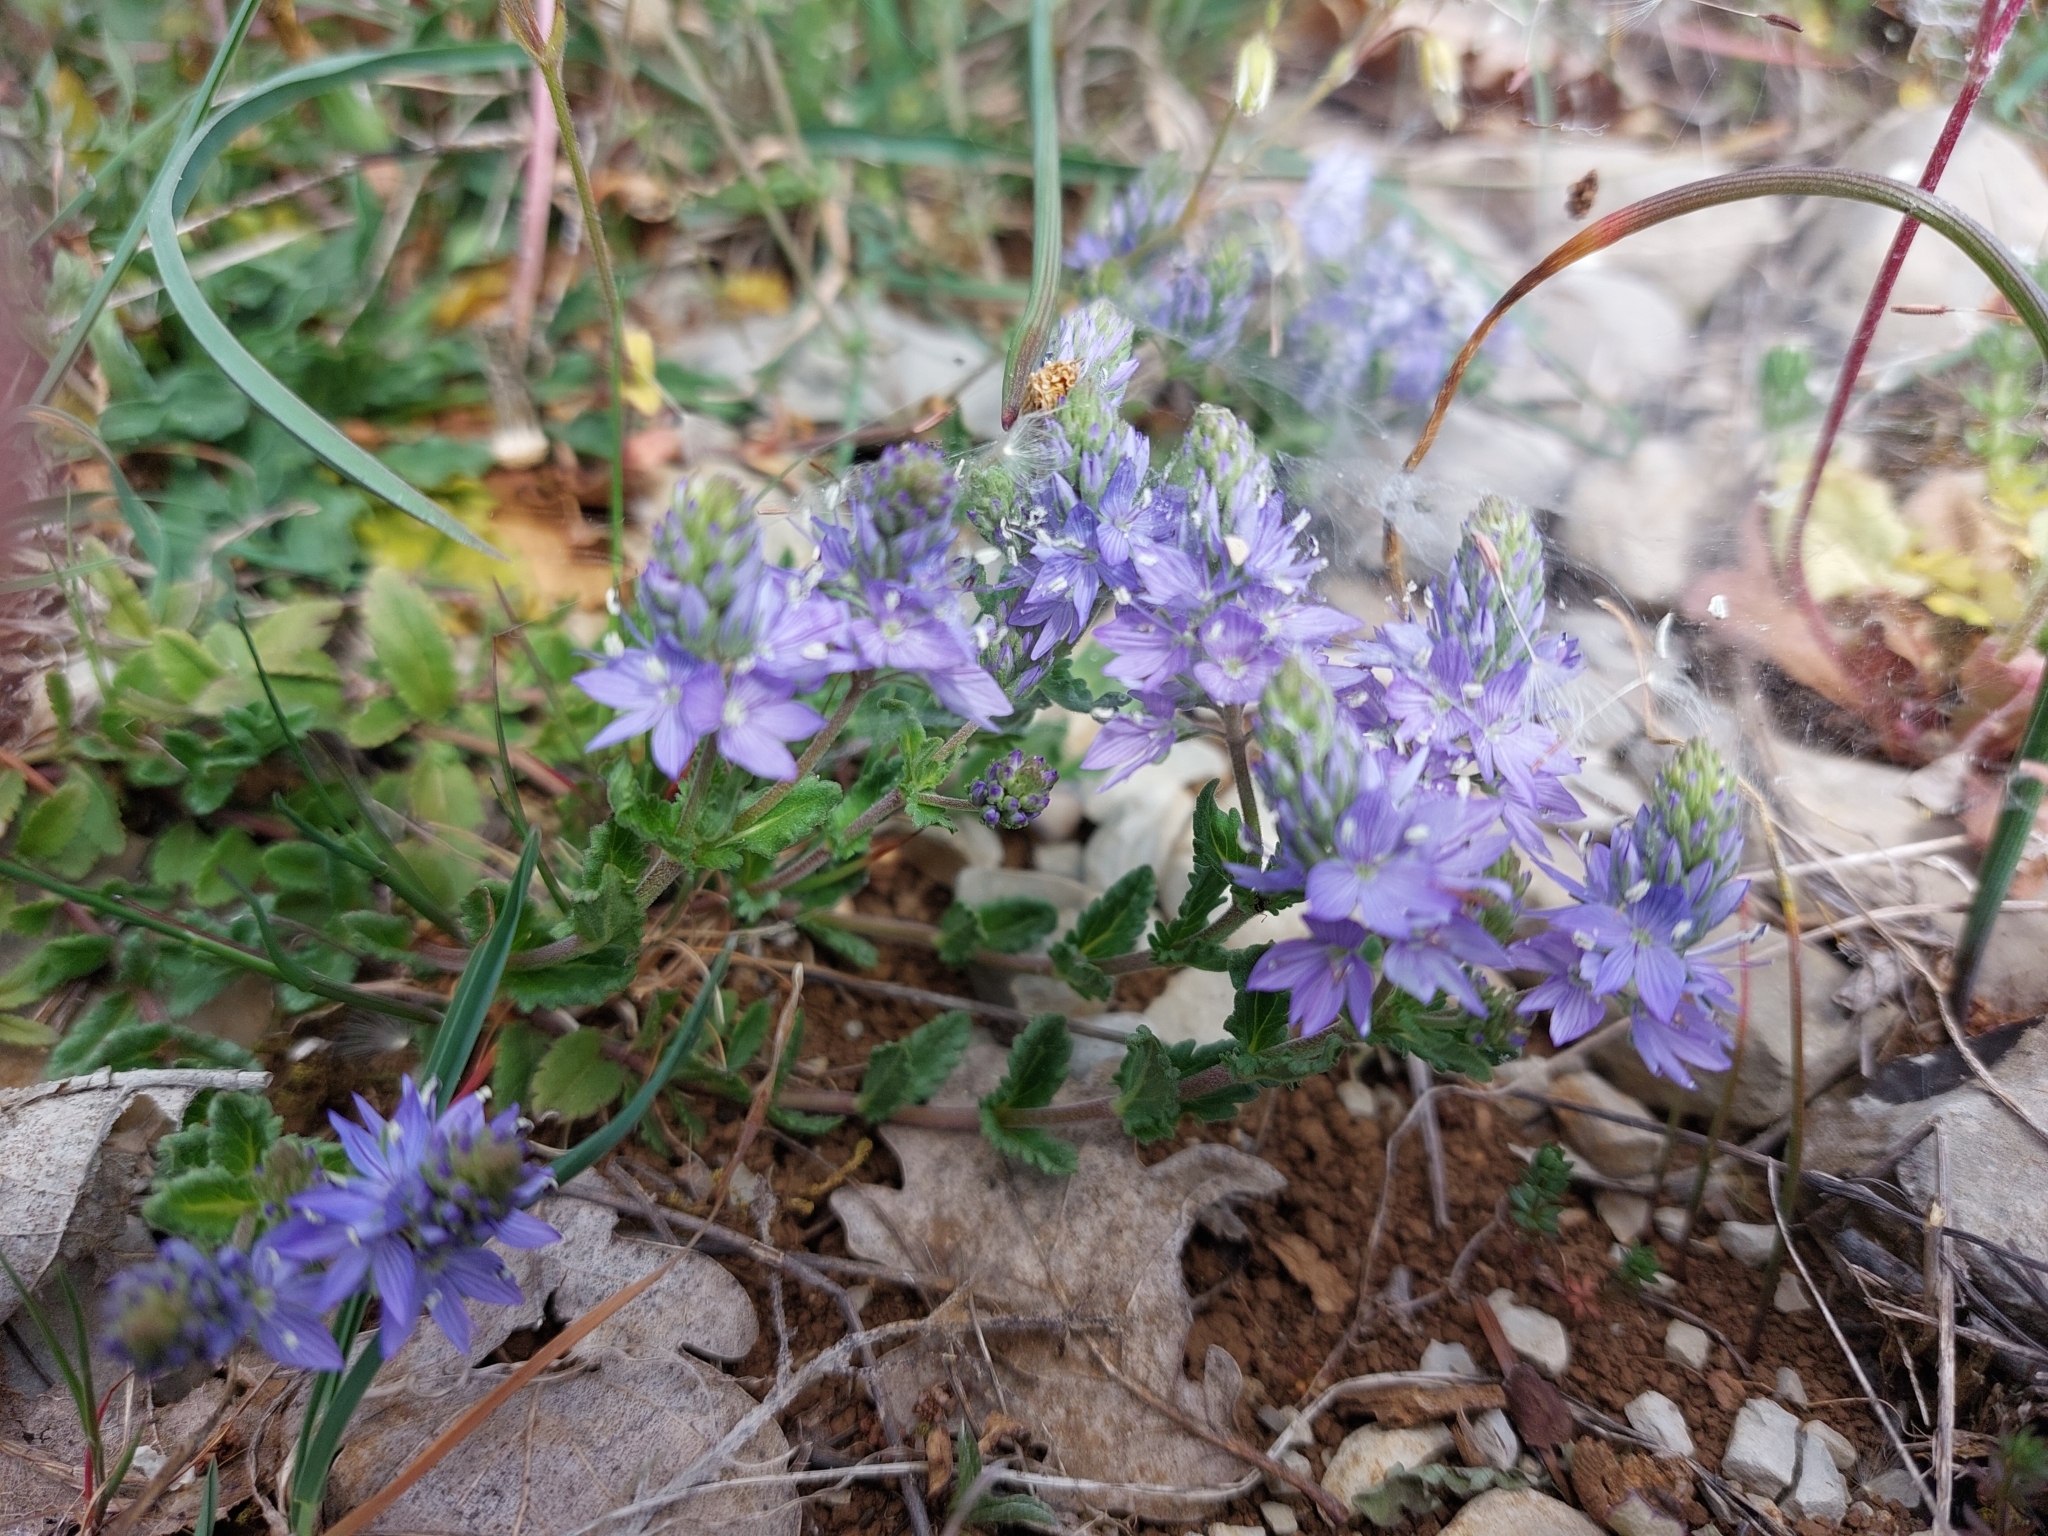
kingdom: Plantae
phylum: Tracheophyta
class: Magnoliopsida
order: Lamiales
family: Plantaginaceae
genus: Veronica
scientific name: Veronica orsiniana
